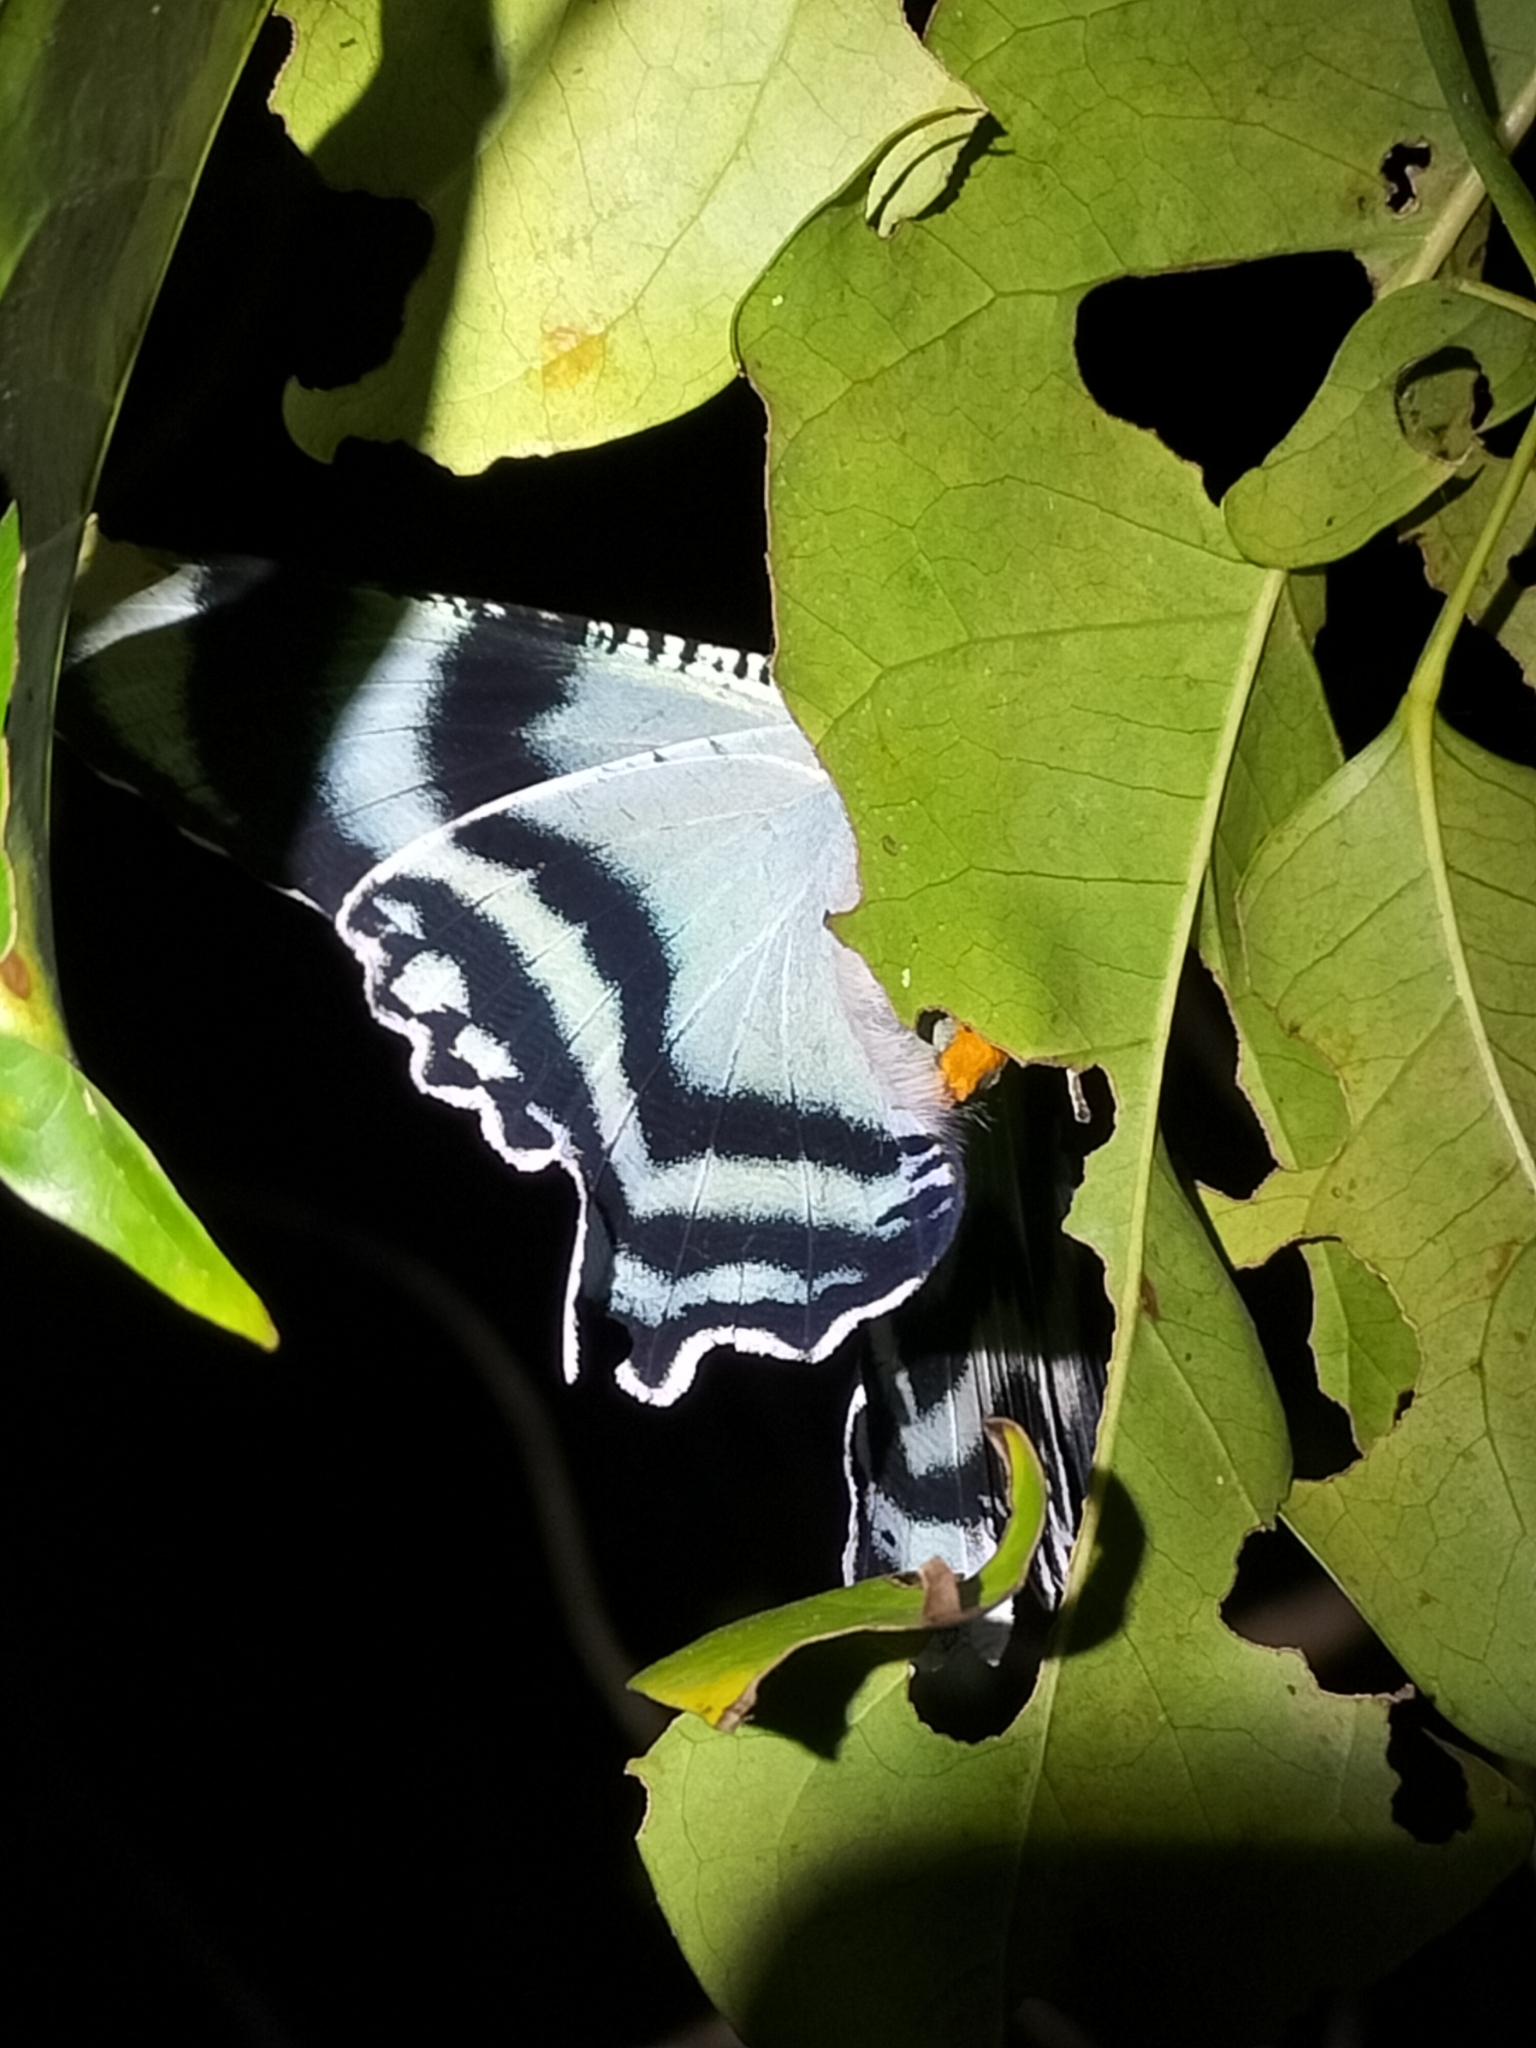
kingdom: Animalia
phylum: Arthropoda
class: Insecta
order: Lepidoptera
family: Uraniidae
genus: Alcides
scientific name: Alcides metaurus
